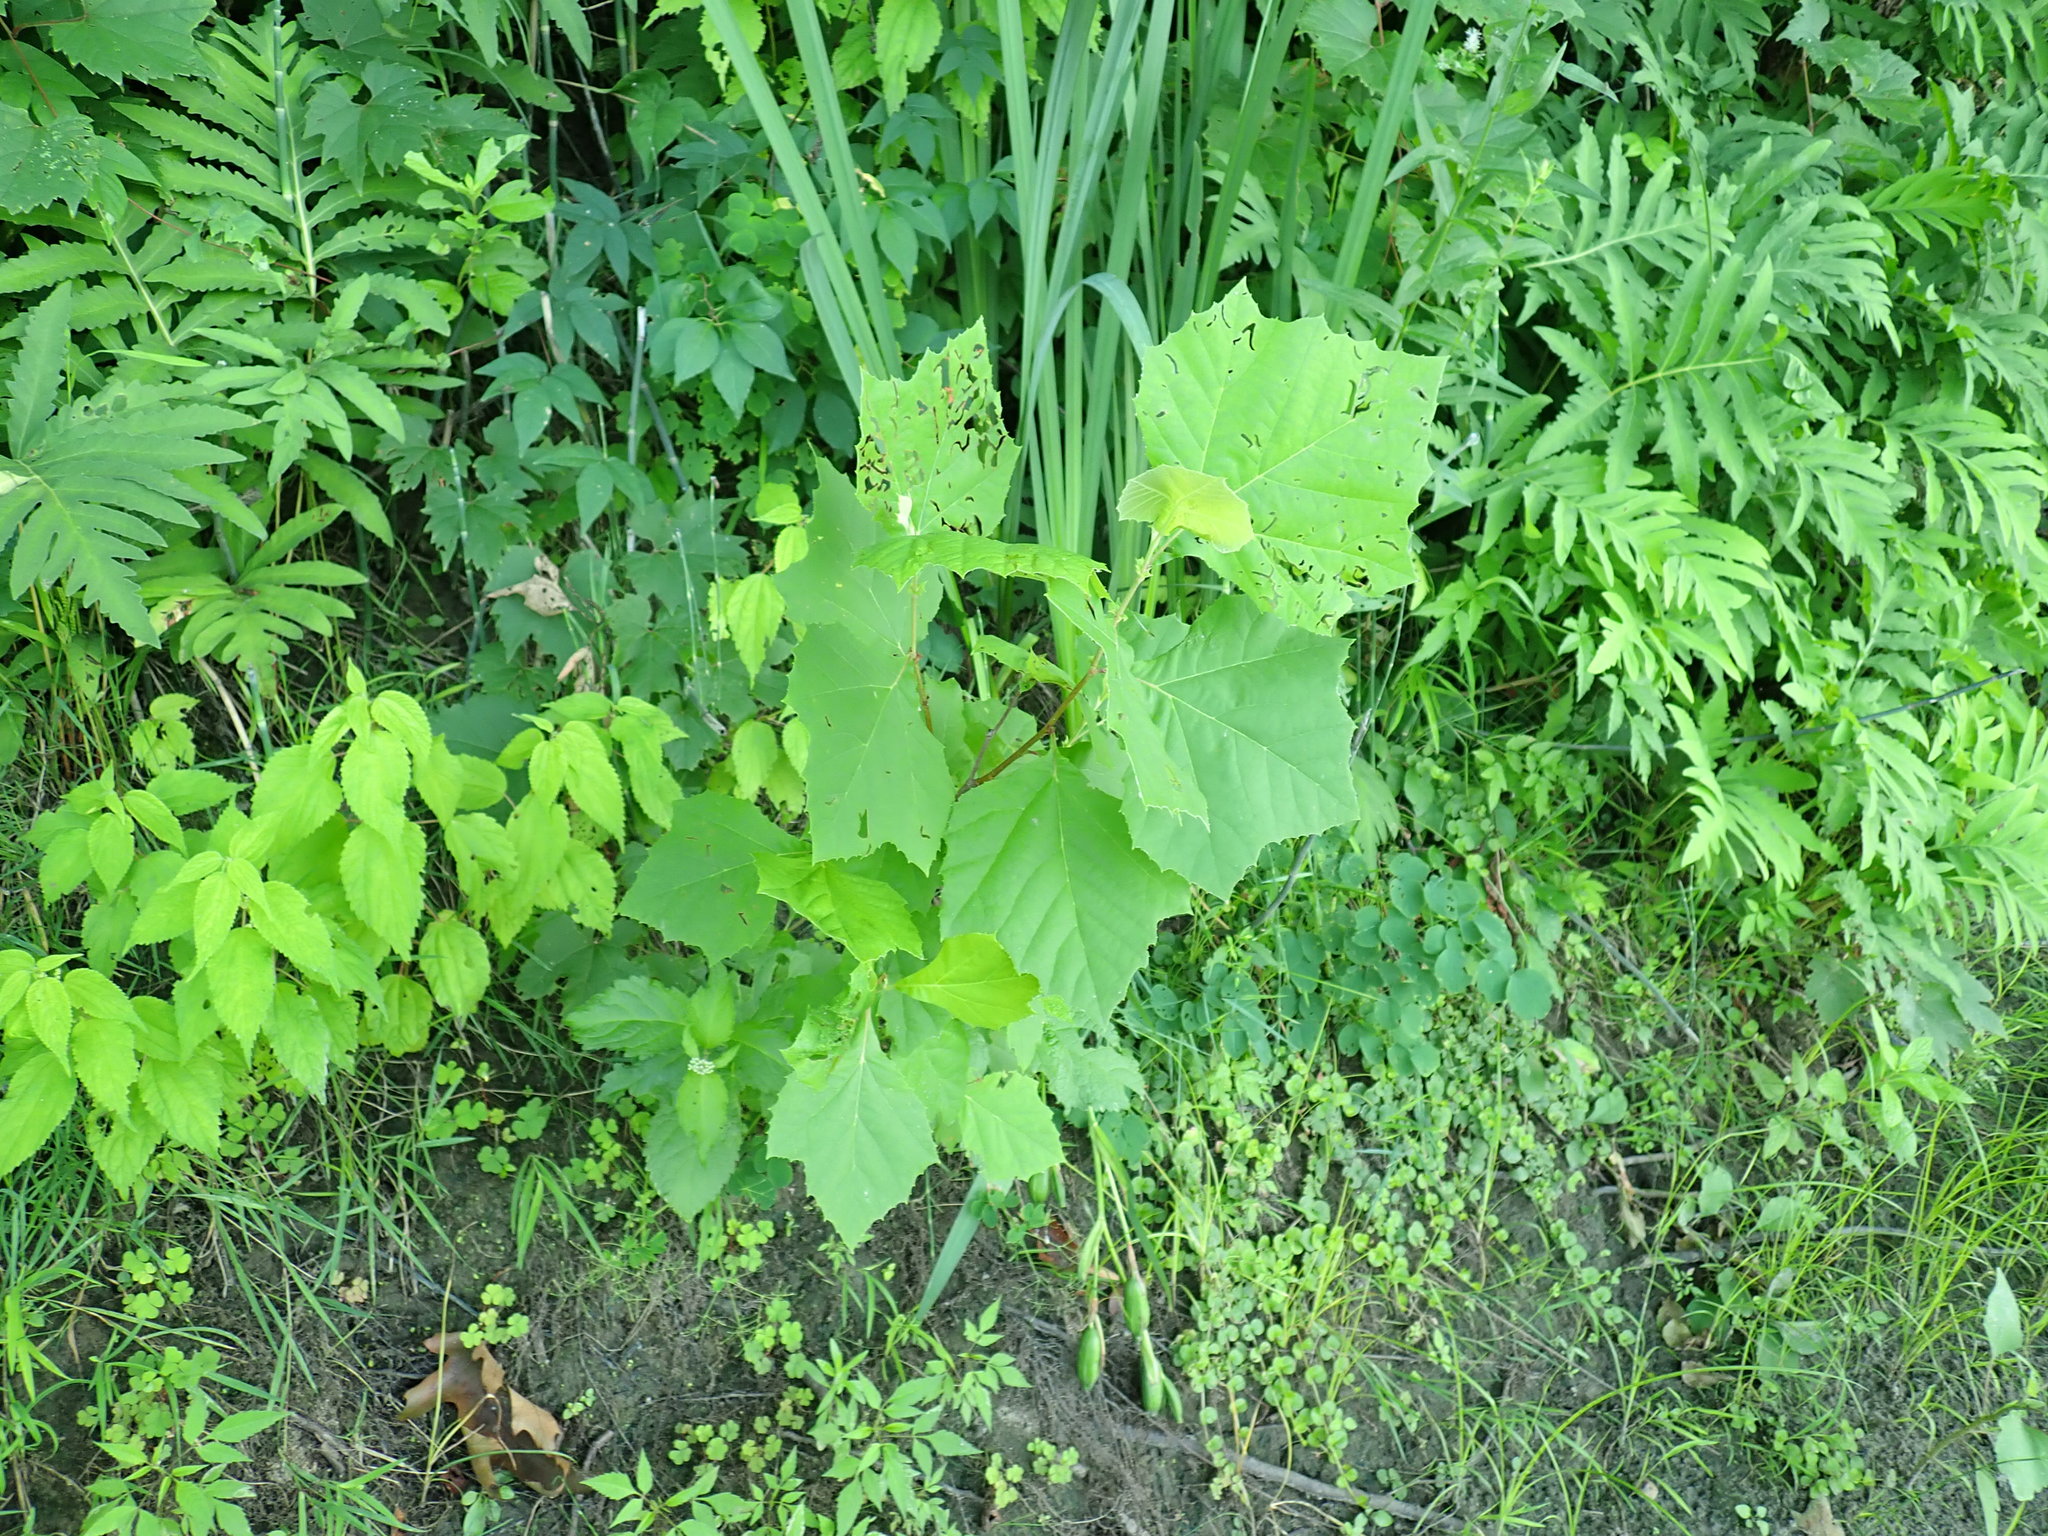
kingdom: Plantae
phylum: Tracheophyta
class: Magnoliopsida
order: Proteales
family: Platanaceae
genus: Platanus
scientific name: Platanus occidentalis
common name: American sycamore
